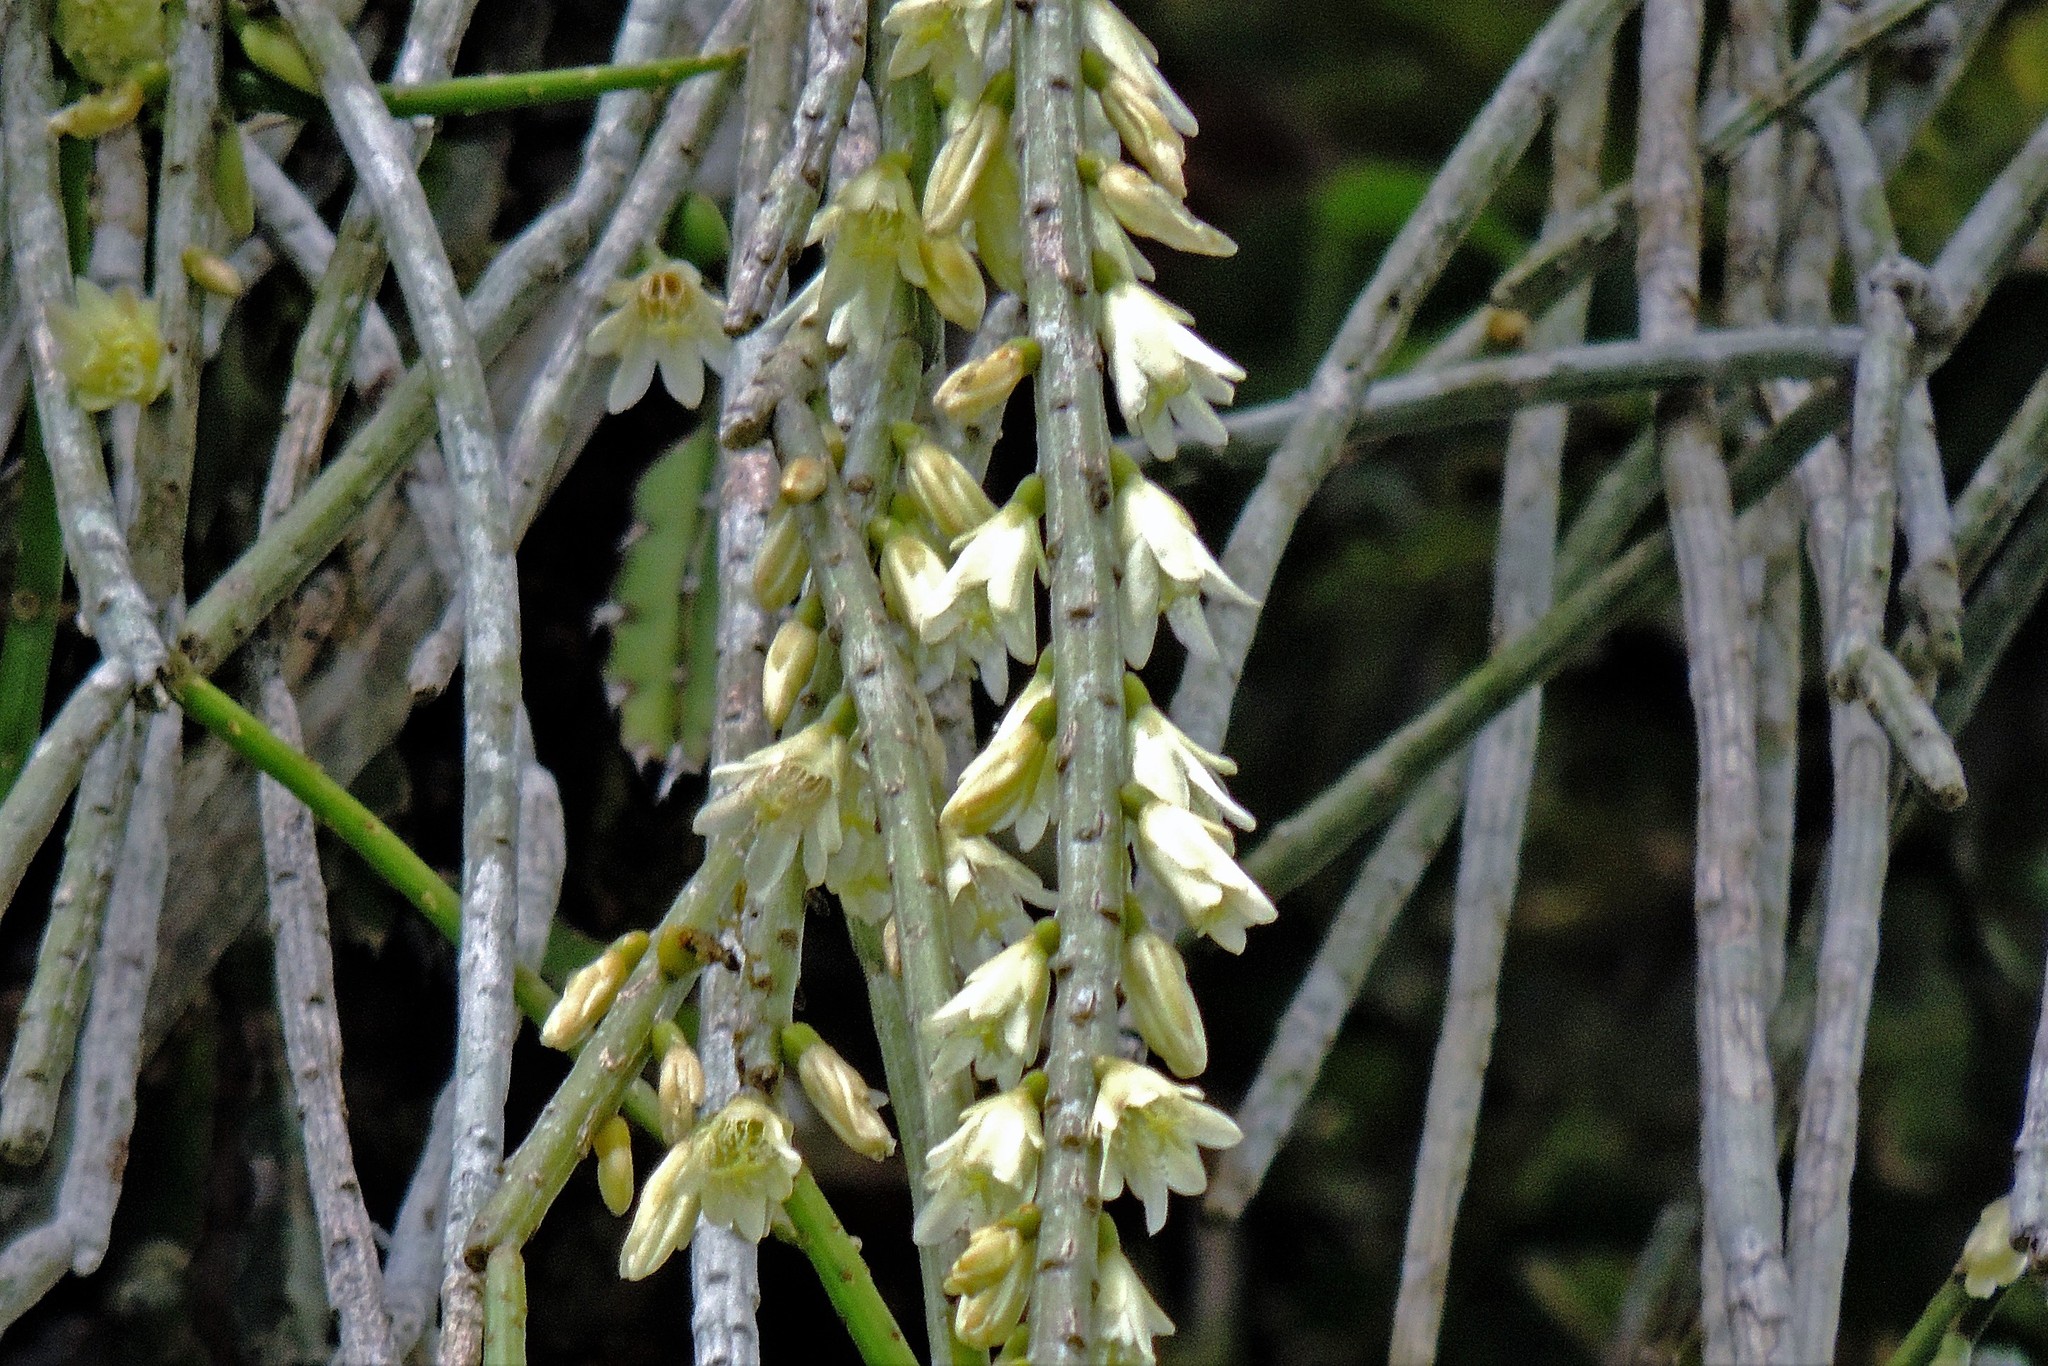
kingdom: Plantae
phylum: Tracheophyta
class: Magnoliopsida
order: Caryophyllales
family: Cactaceae
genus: Lepismium
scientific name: Lepismium lumbricoides
